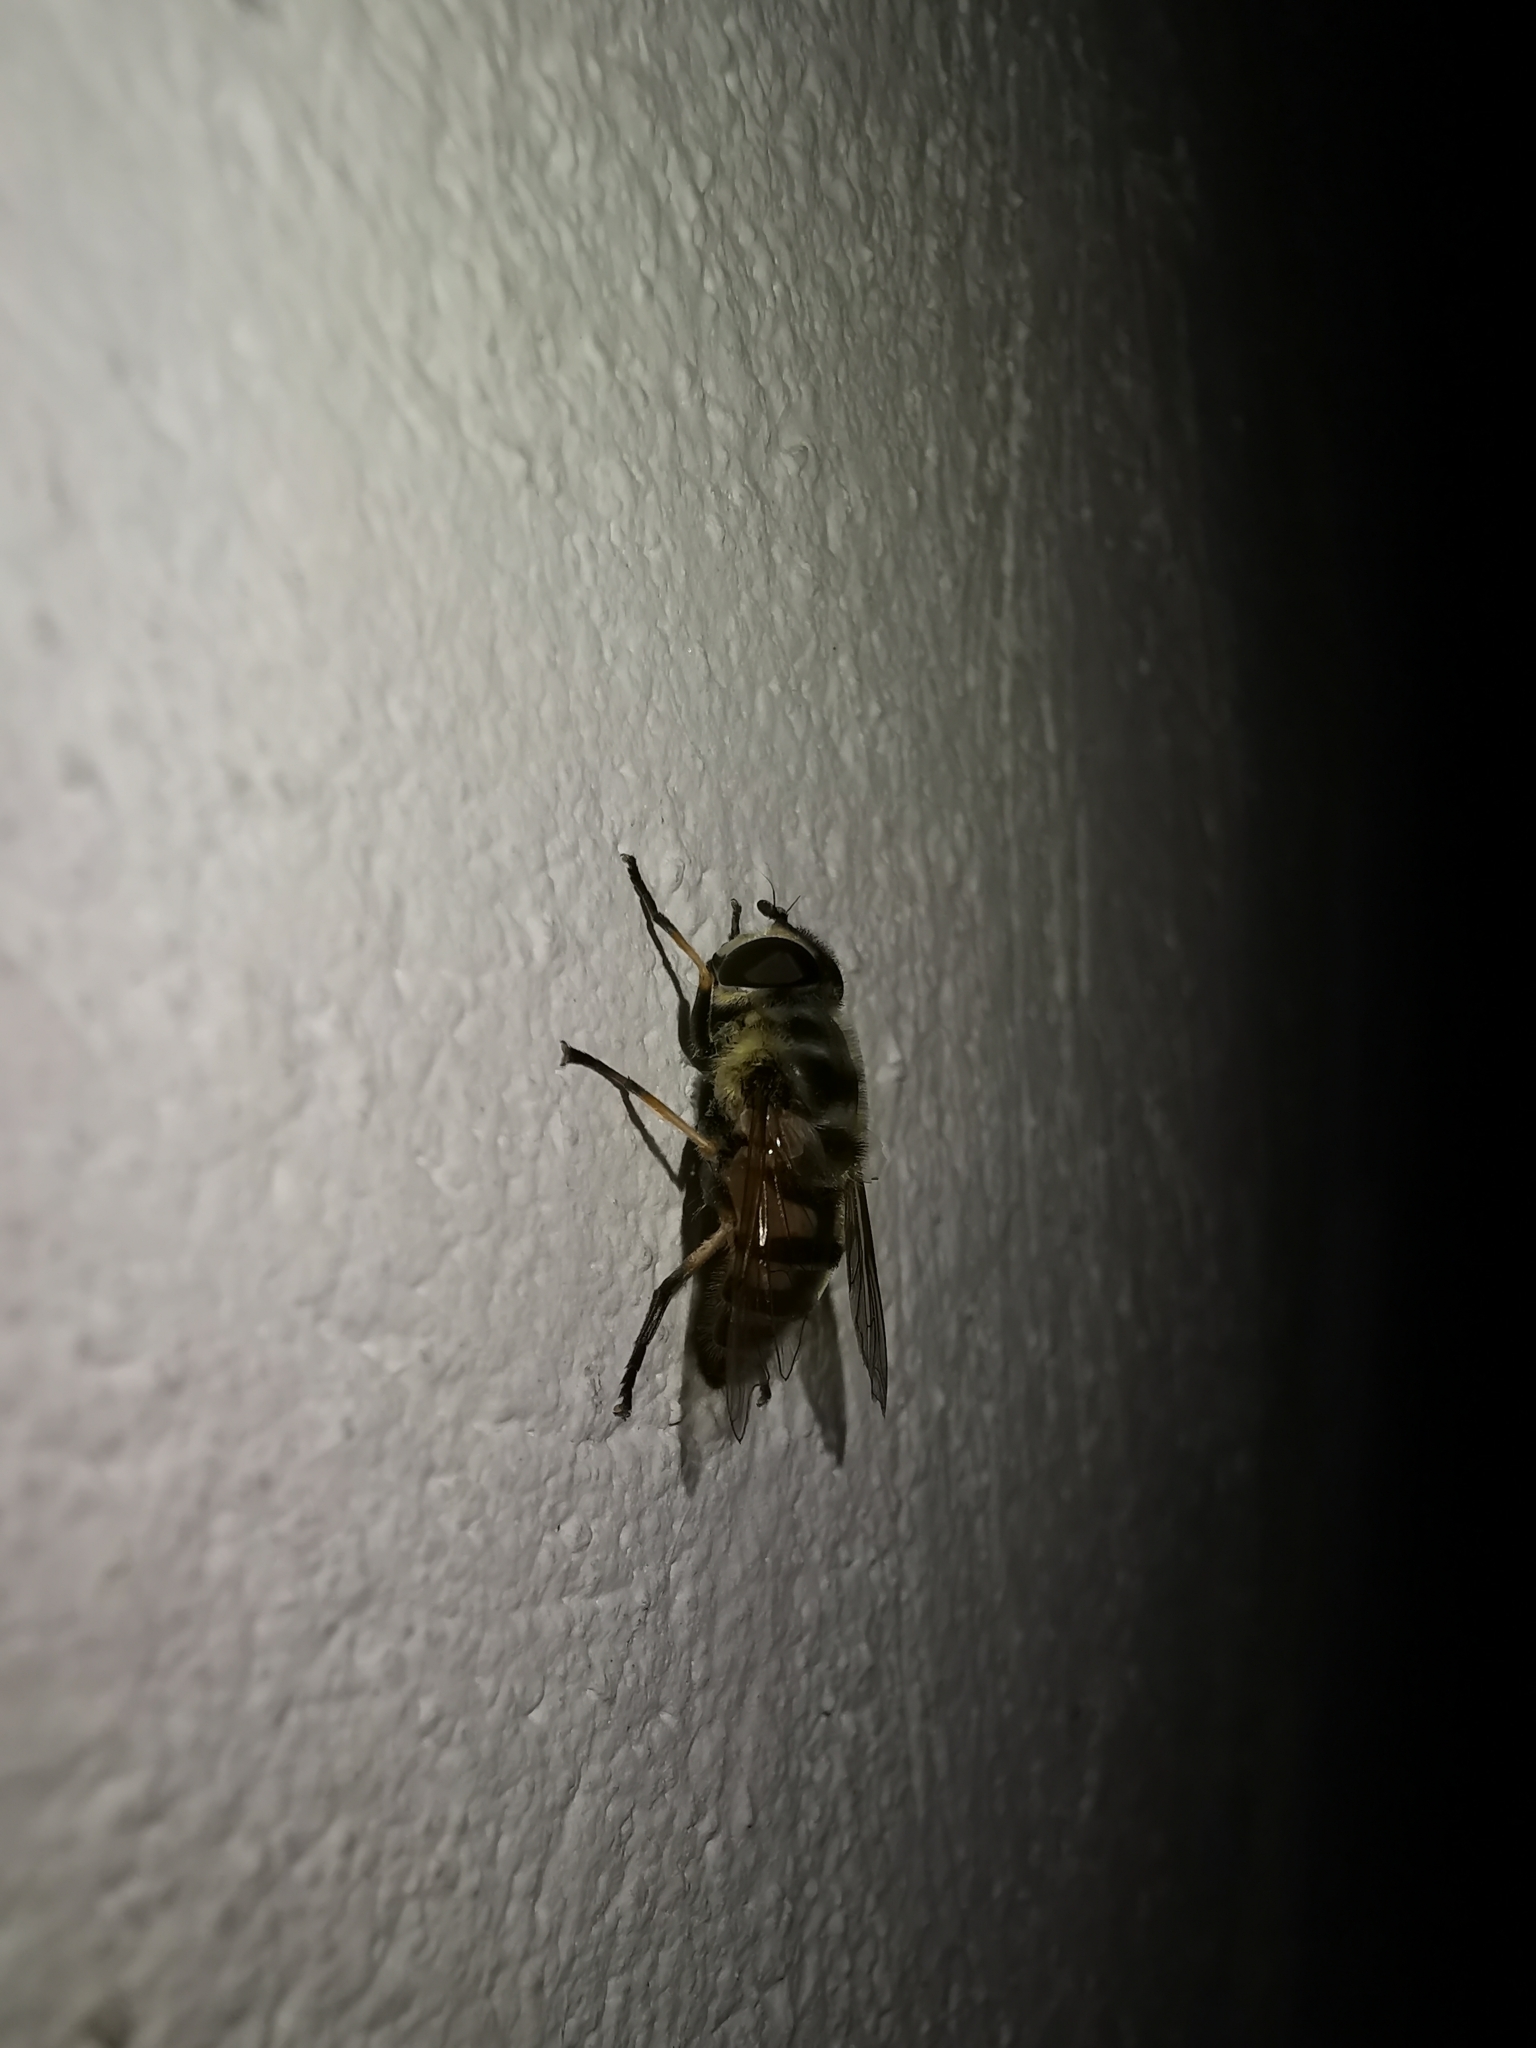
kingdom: Animalia
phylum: Arthropoda
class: Insecta
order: Diptera
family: Syrphidae
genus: Myathropa
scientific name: Myathropa florea
